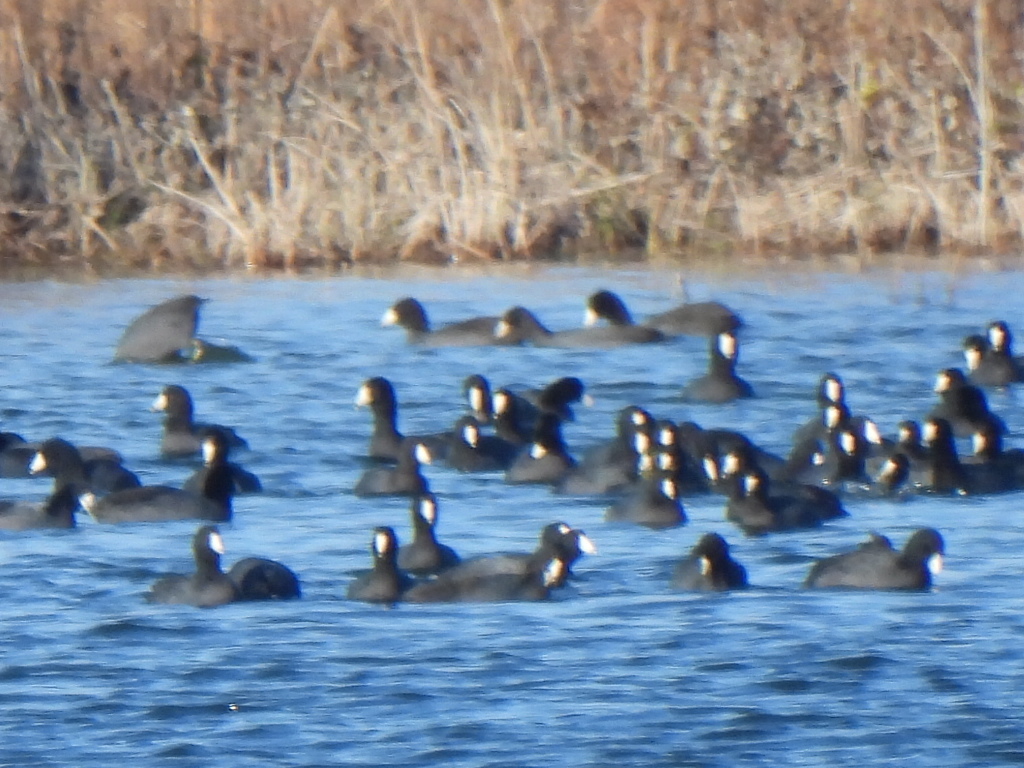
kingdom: Animalia
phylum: Chordata
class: Aves
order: Gruiformes
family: Rallidae
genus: Fulica
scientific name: Fulica americana
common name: American coot
